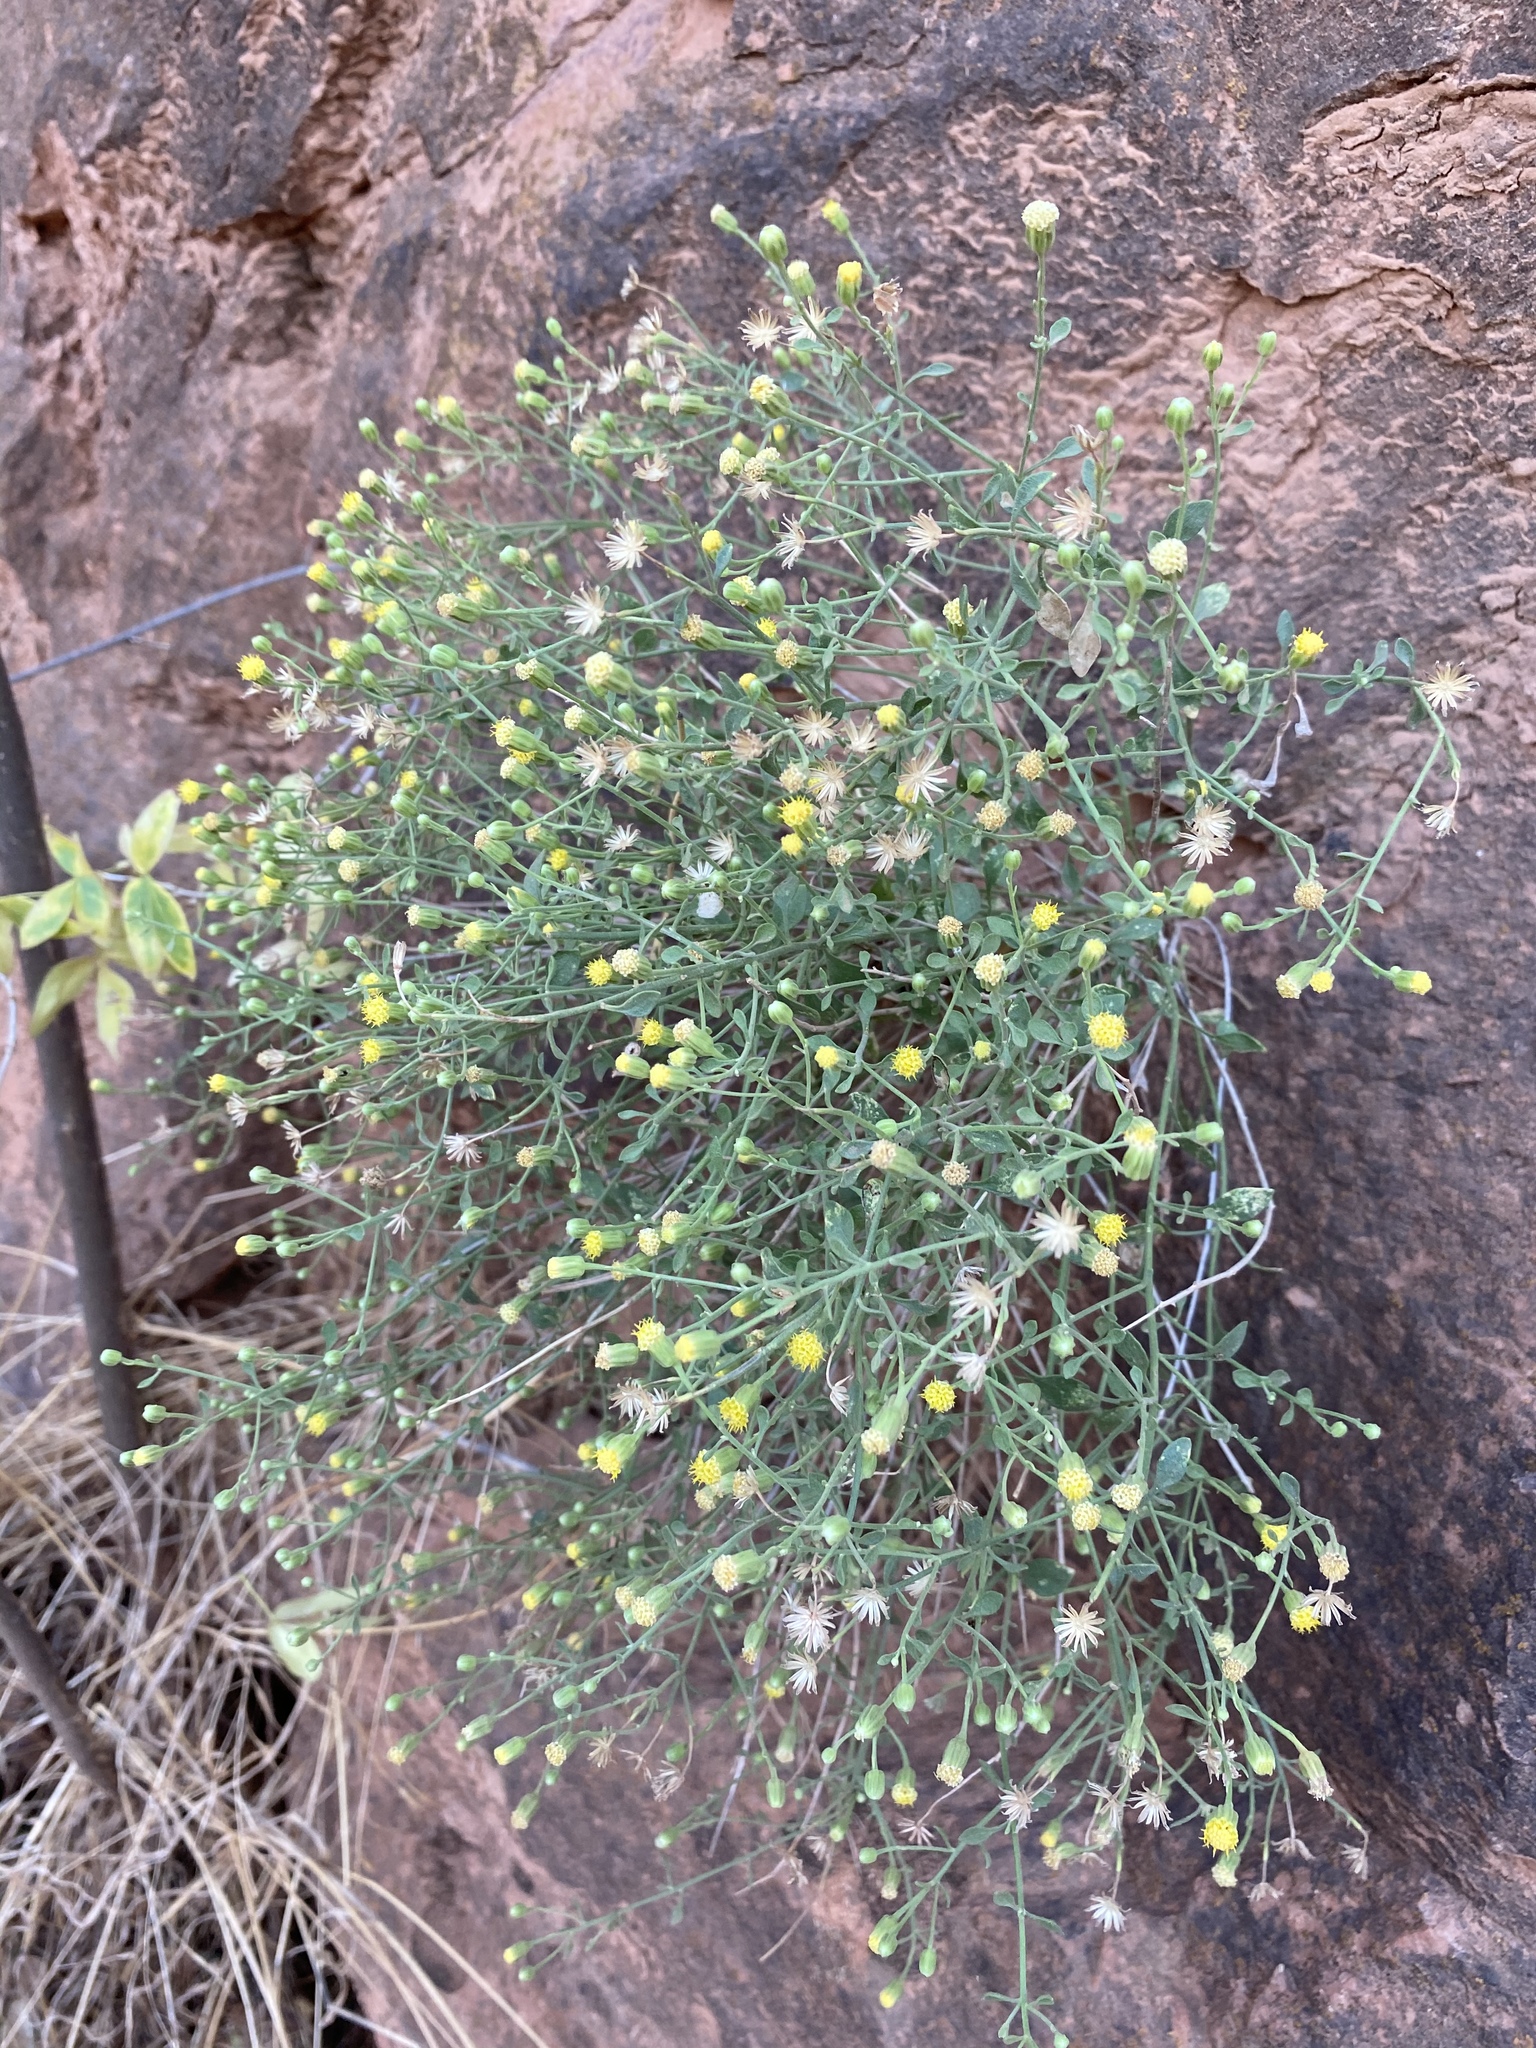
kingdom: Plantae
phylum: Tracheophyta
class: Magnoliopsida
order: Asterales
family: Asteraceae
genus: Laphamia
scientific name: Laphamia congesta
